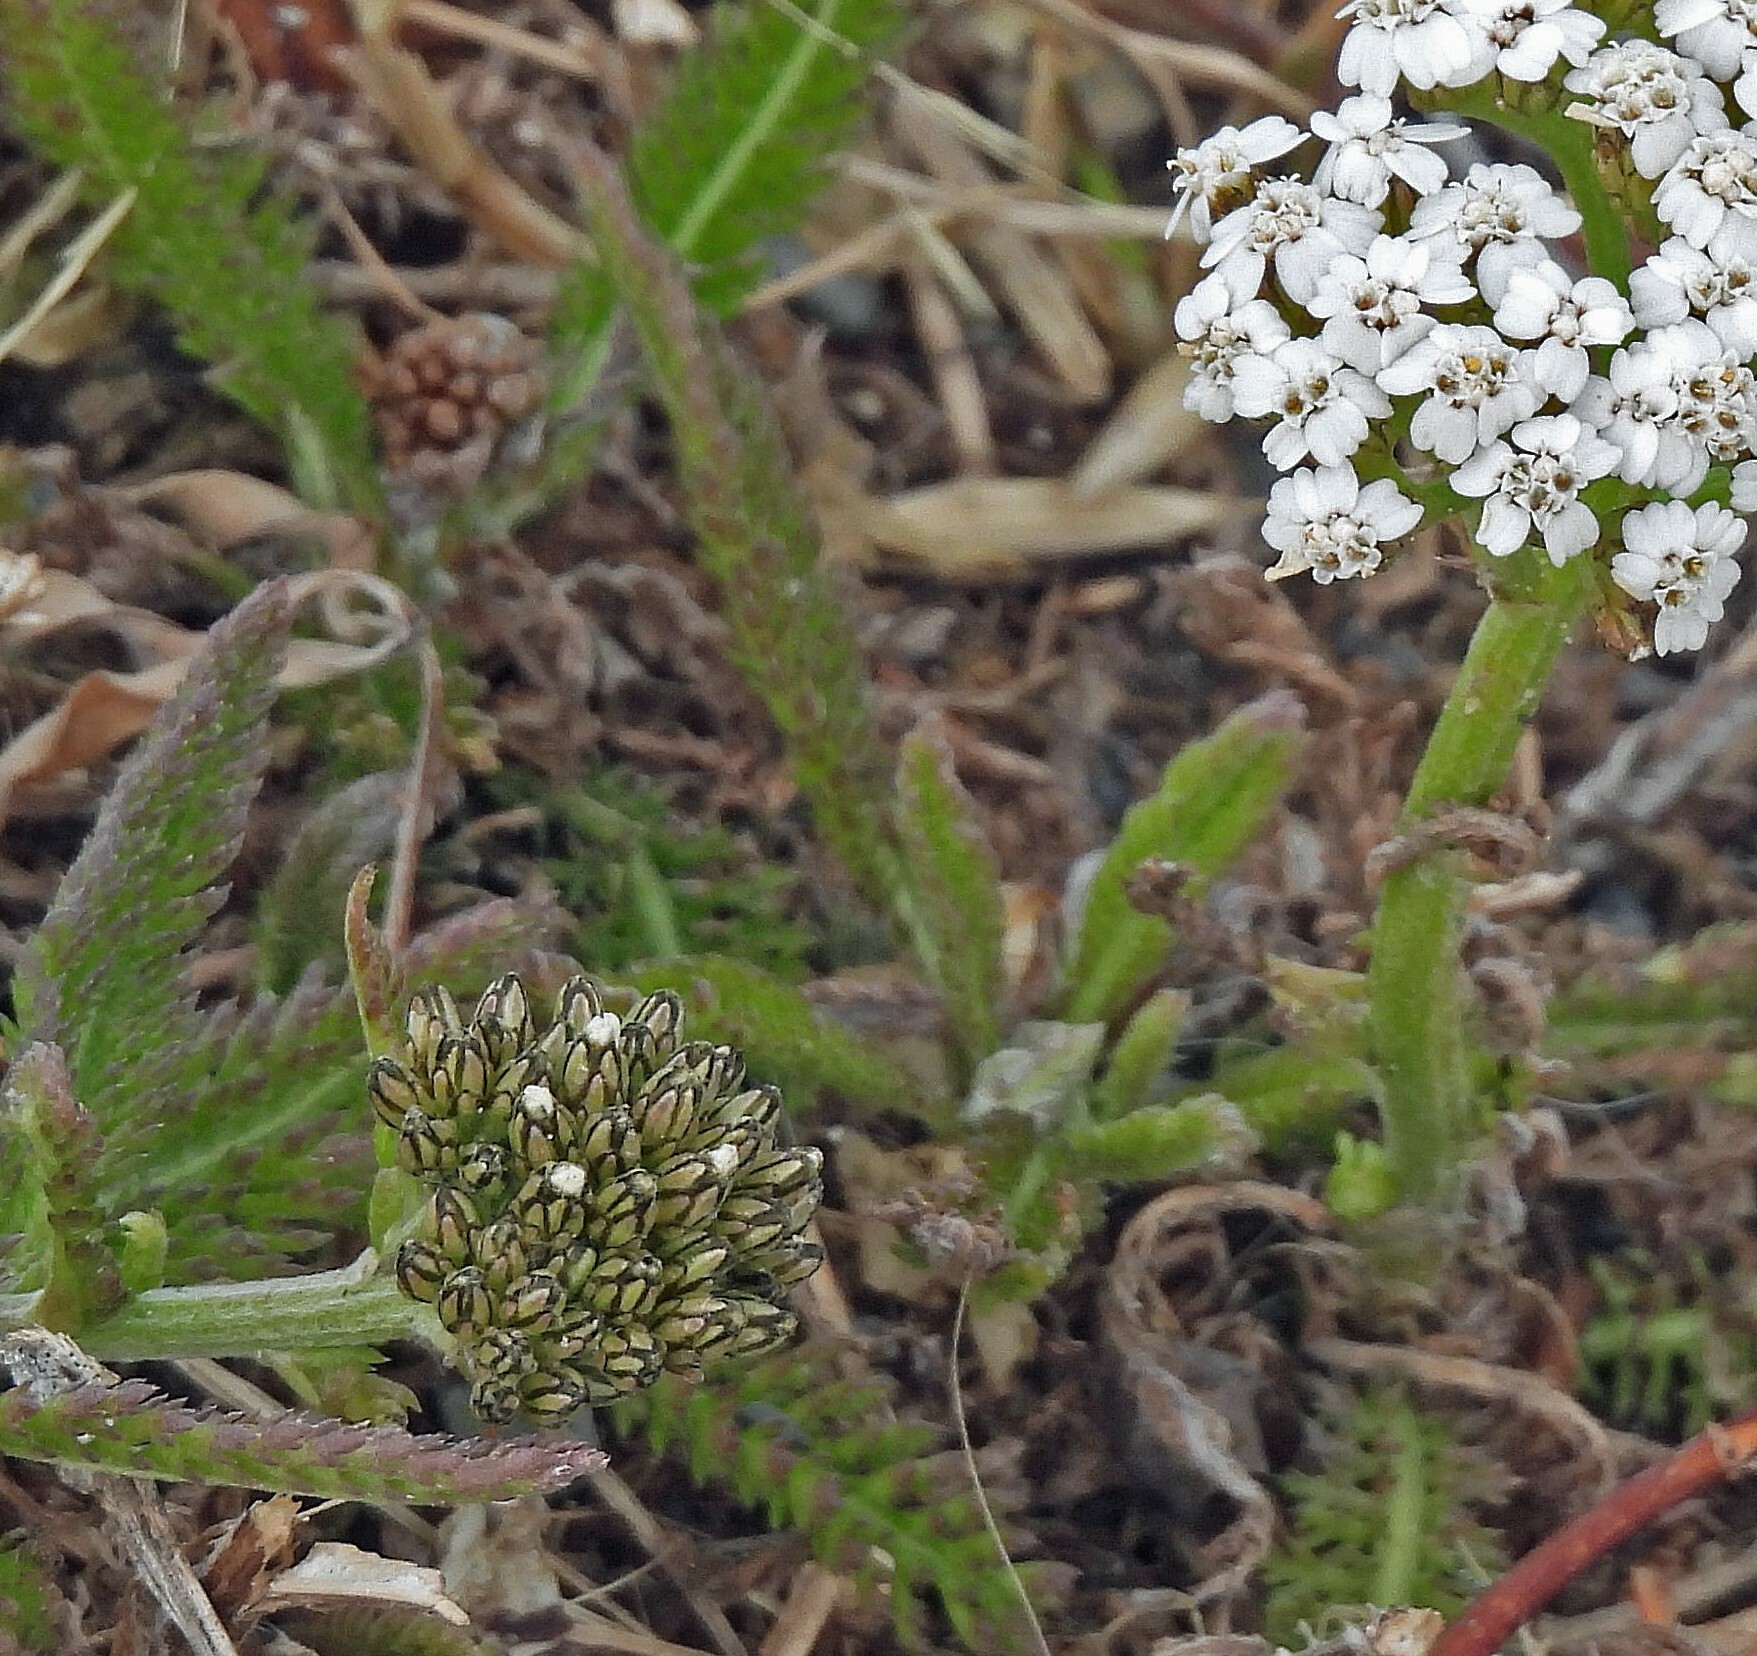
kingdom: Plantae
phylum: Tracheophyta
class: Magnoliopsida
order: Asterales
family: Asteraceae
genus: Achillea
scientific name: Achillea millefolium
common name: Yarrow
